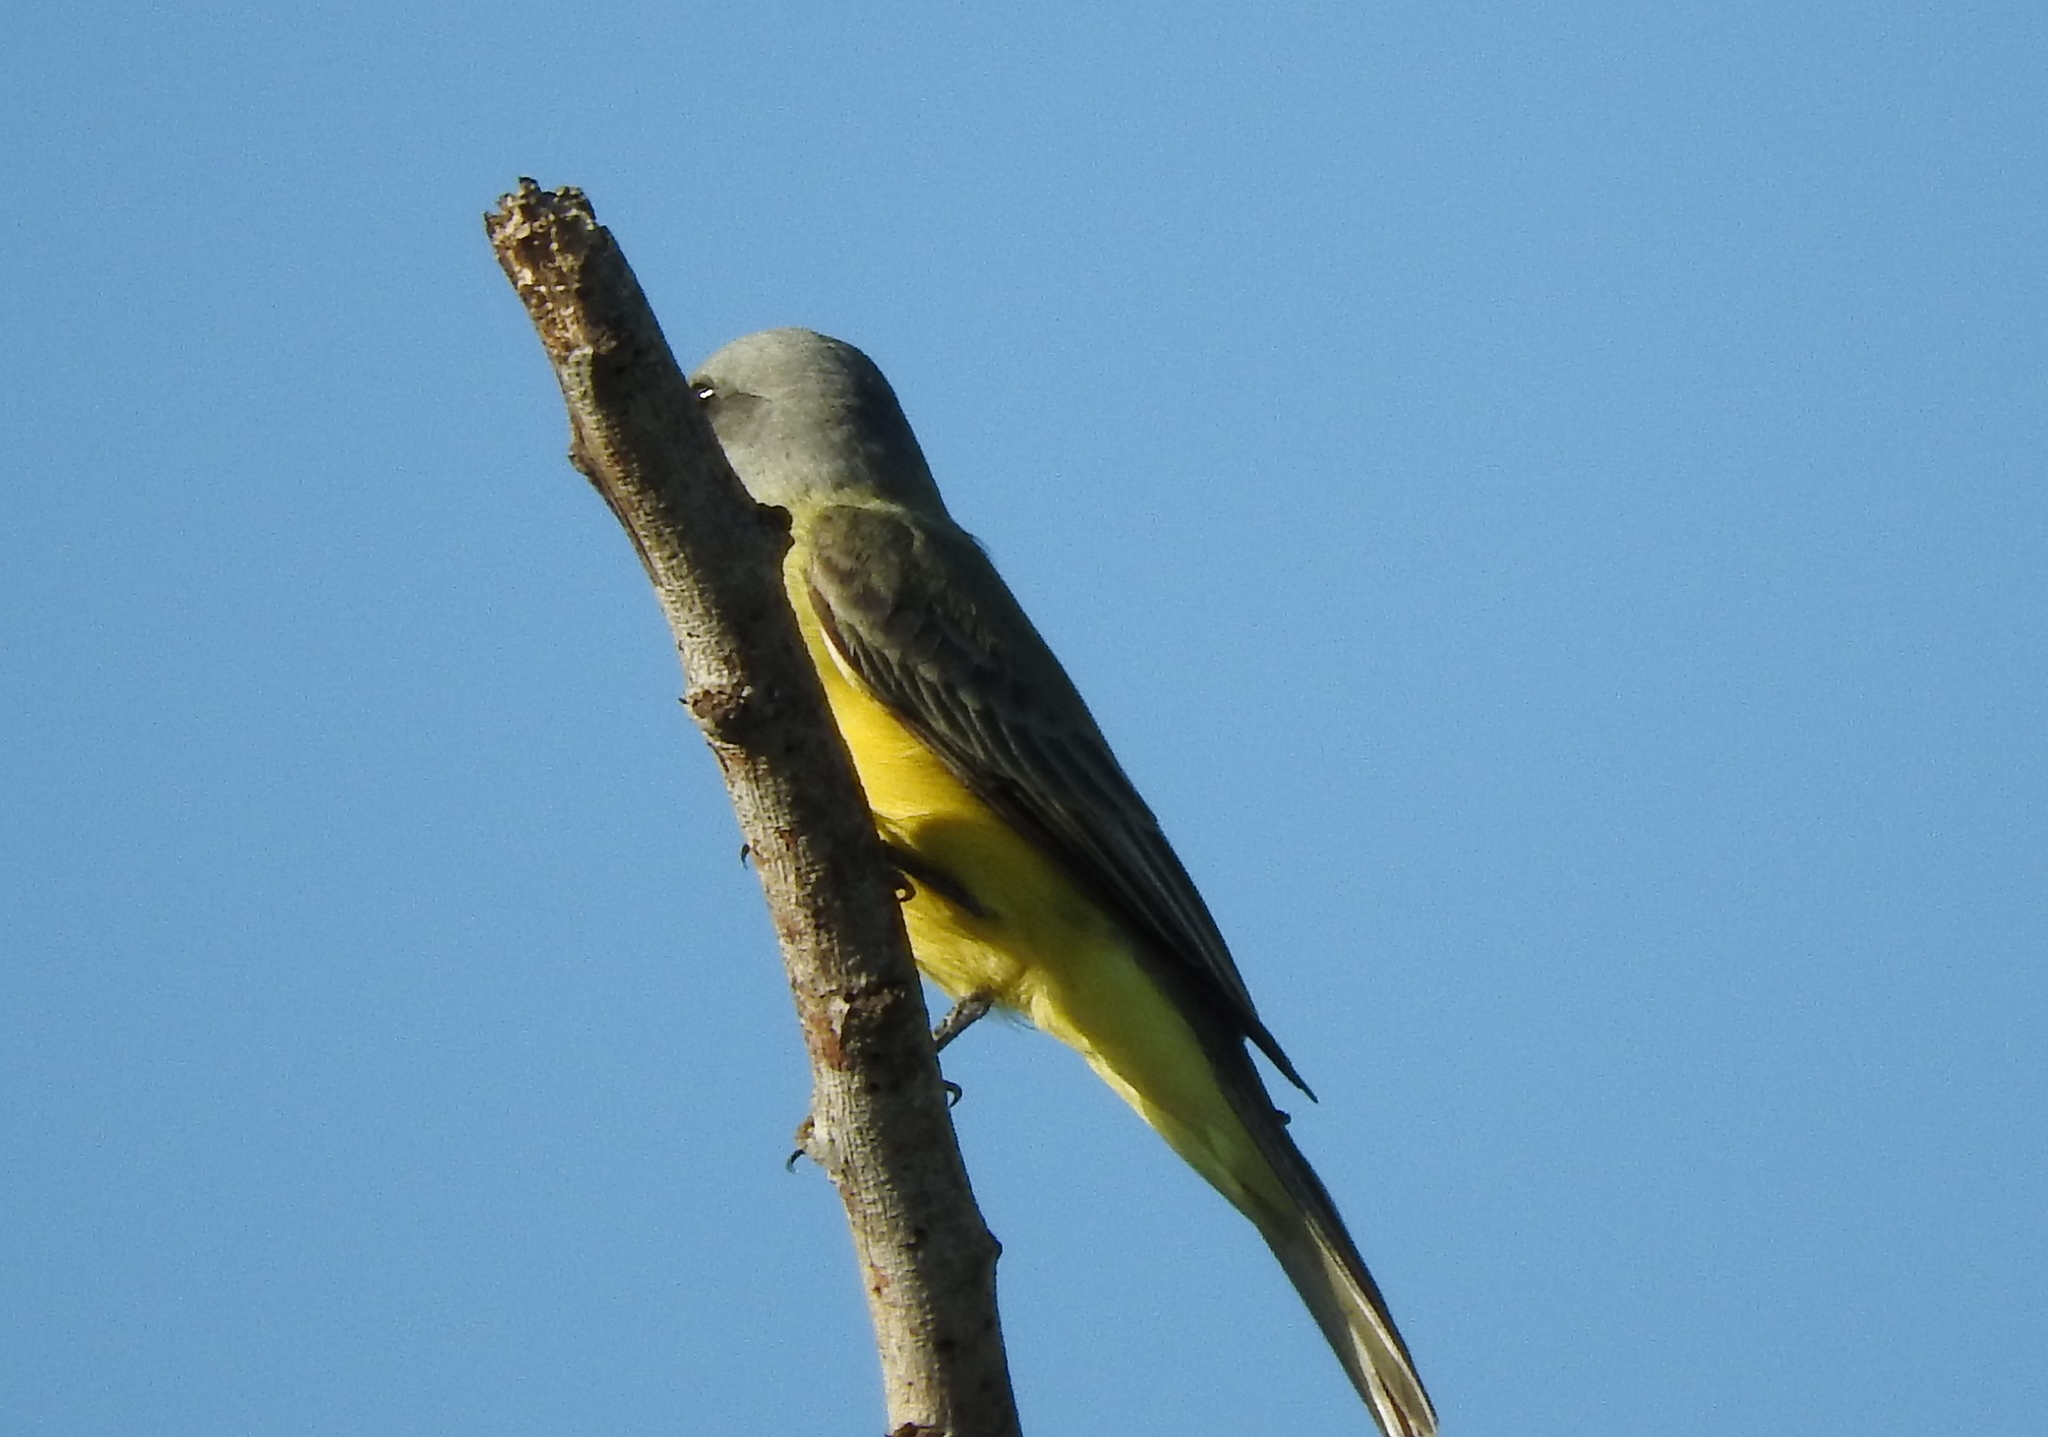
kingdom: Animalia
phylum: Chordata
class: Aves
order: Passeriformes
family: Tyrannidae
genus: Tyrannus
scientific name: Tyrannus melancholicus
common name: Tropical kingbird
